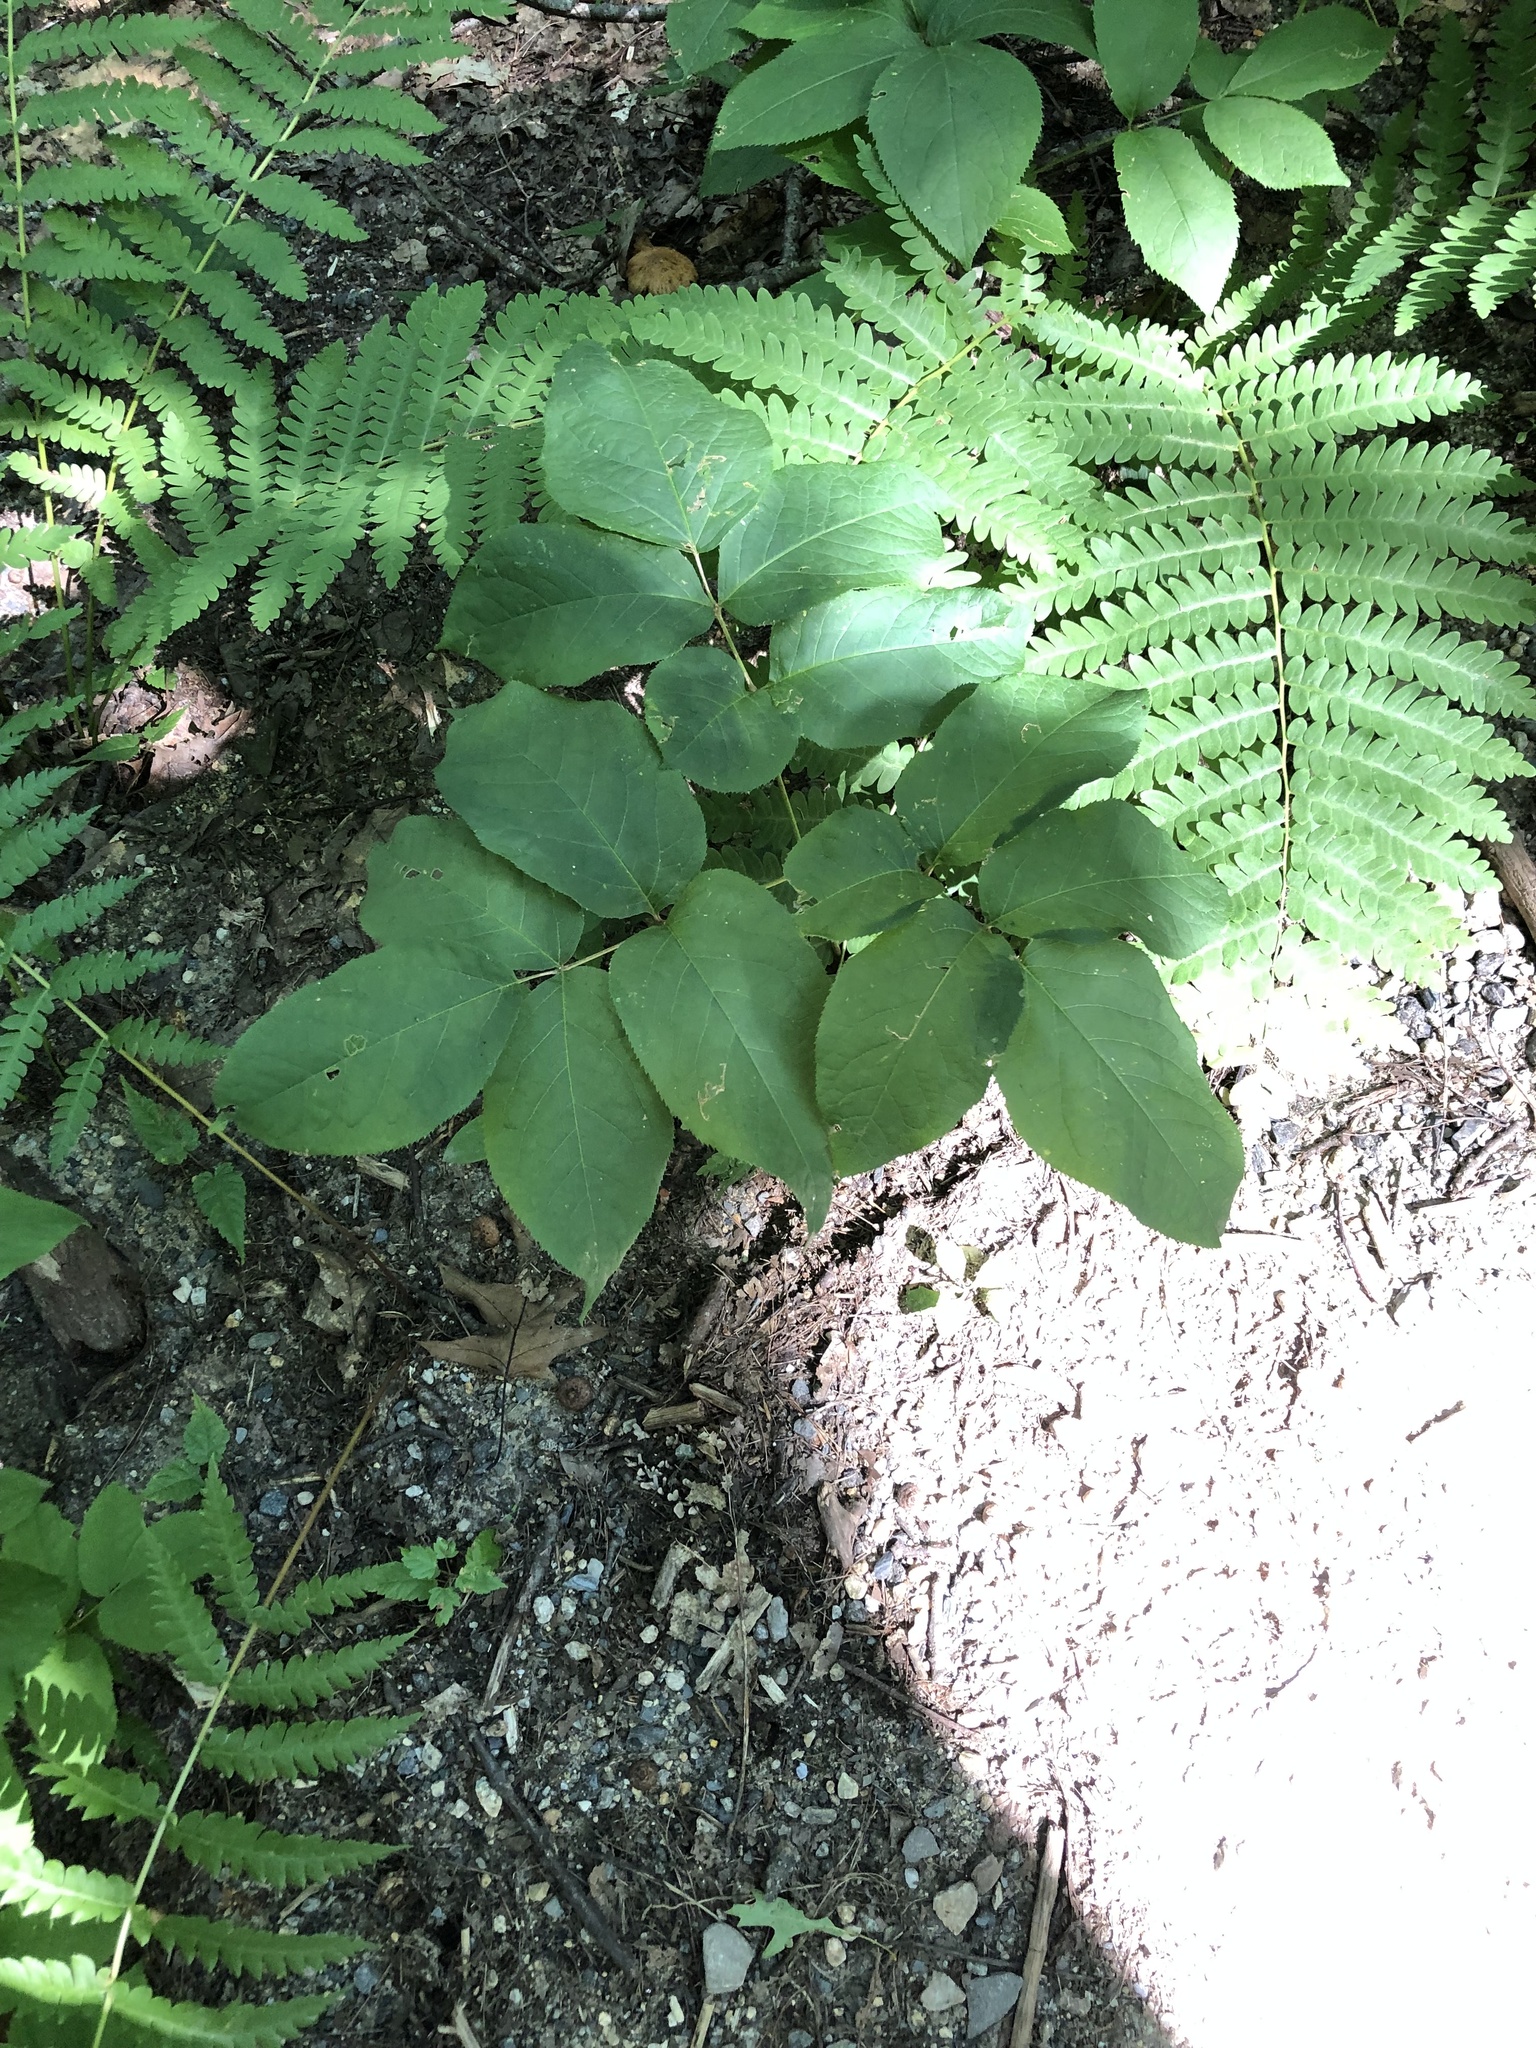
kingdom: Plantae
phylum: Tracheophyta
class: Magnoliopsida
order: Apiales
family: Araliaceae
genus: Aralia
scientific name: Aralia nudicaulis
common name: Wild sarsaparilla
